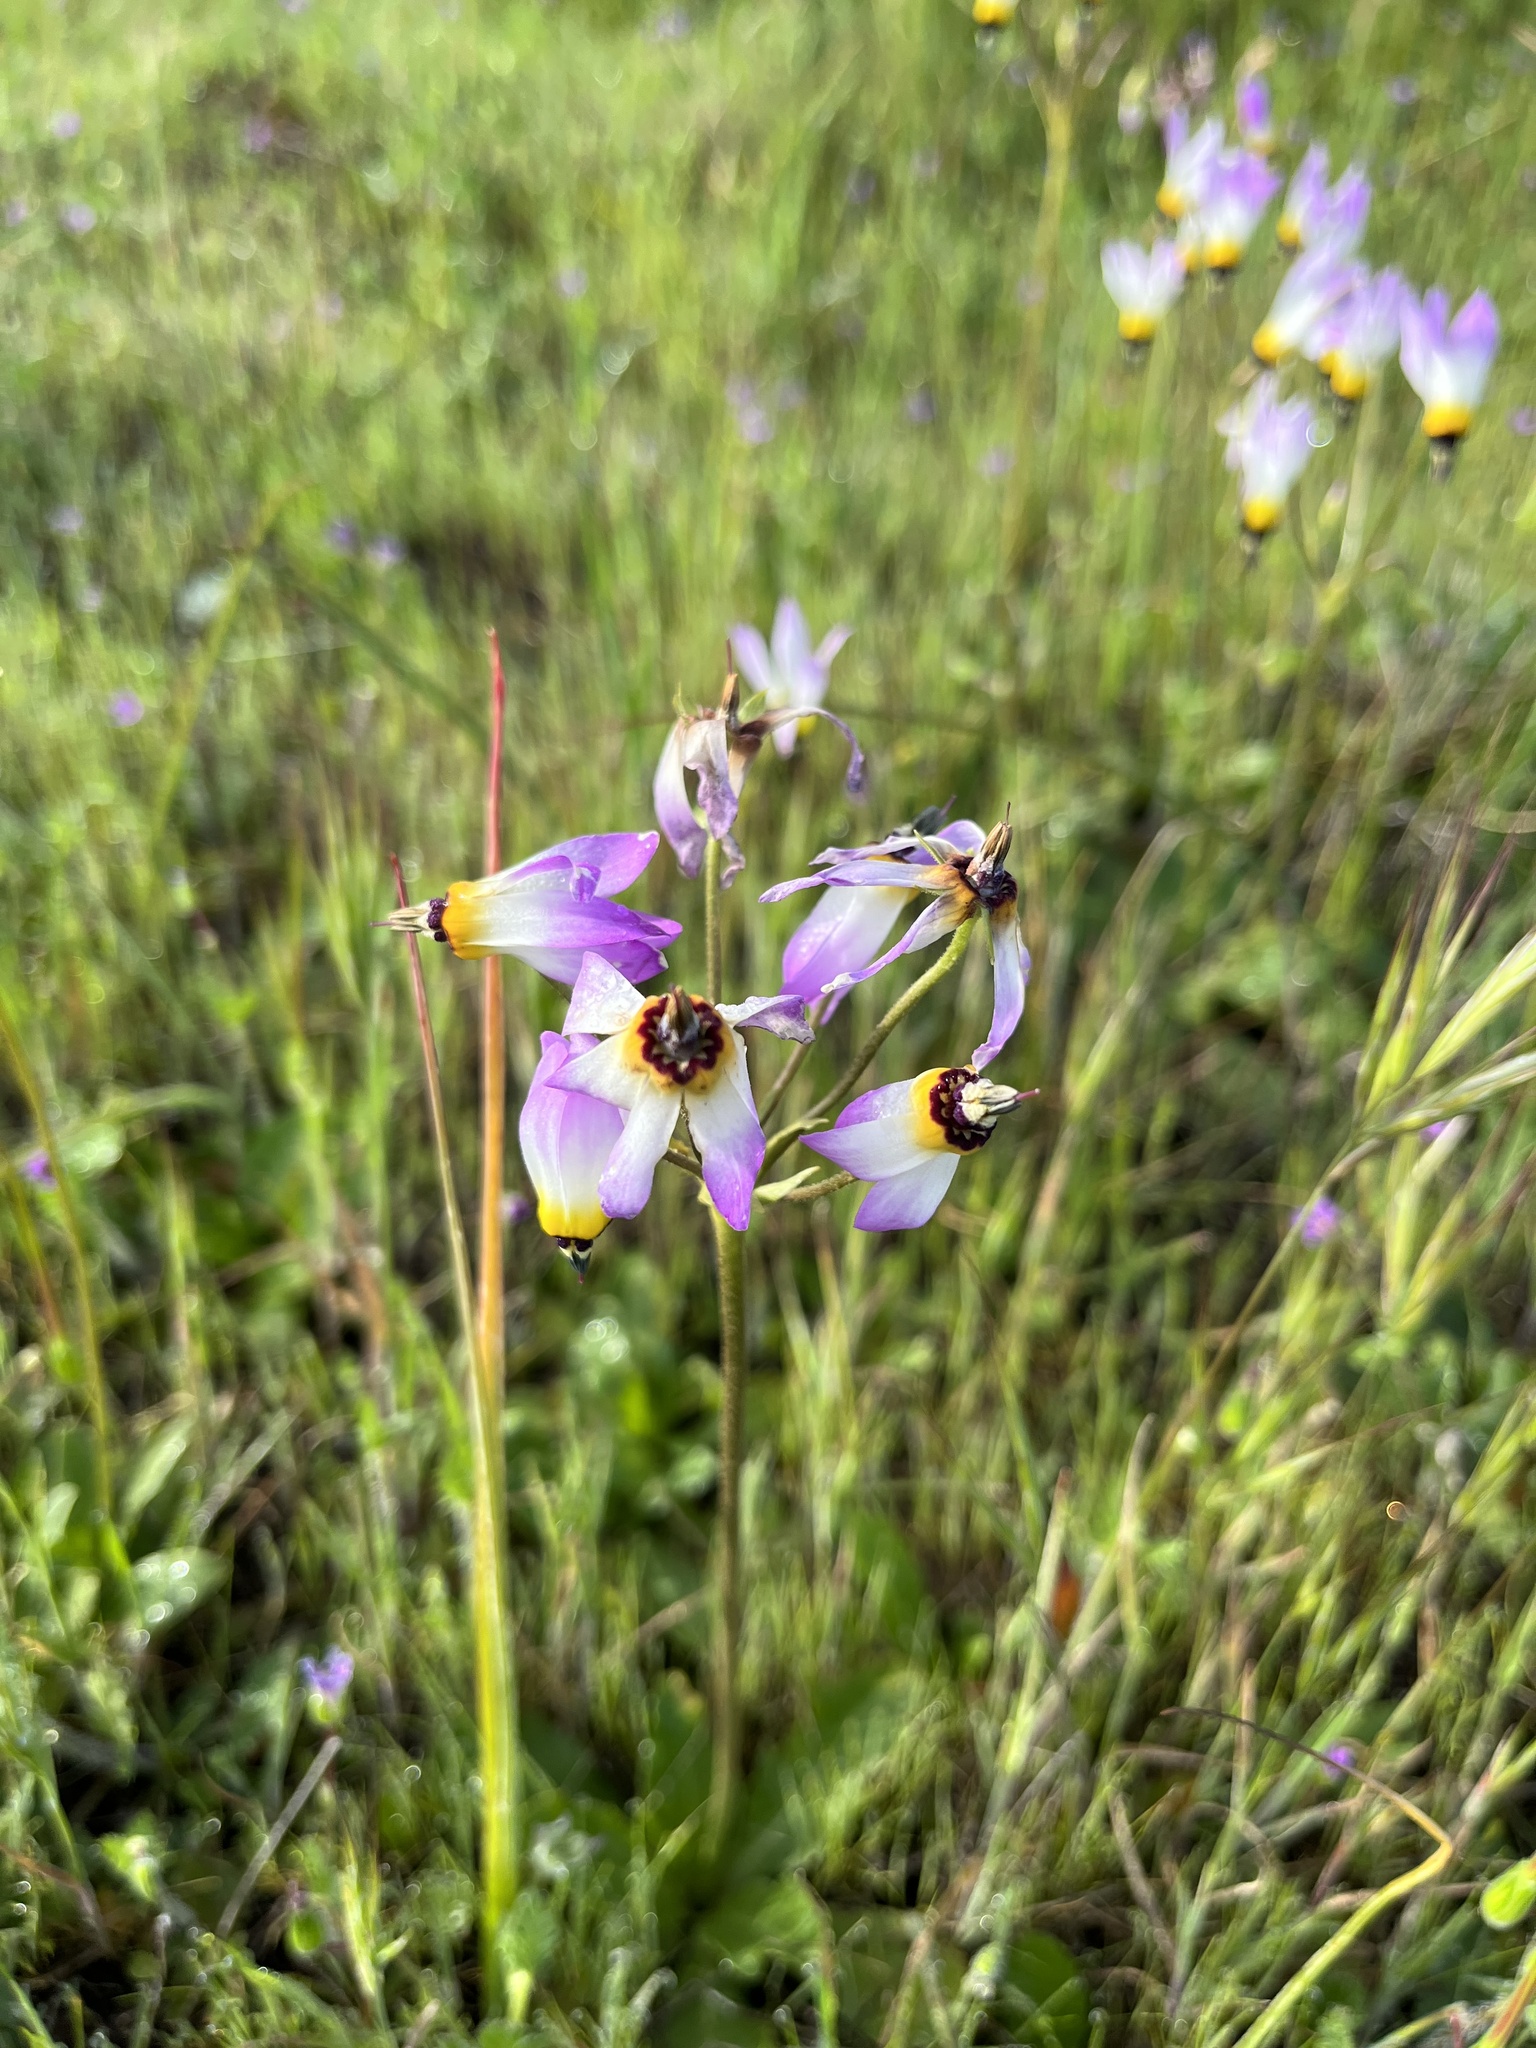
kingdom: Plantae
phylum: Tracheophyta
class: Magnoliopsida
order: Ericales
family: Primulaceae
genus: Dodecatheon
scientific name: Dodecatheon clevelandii
